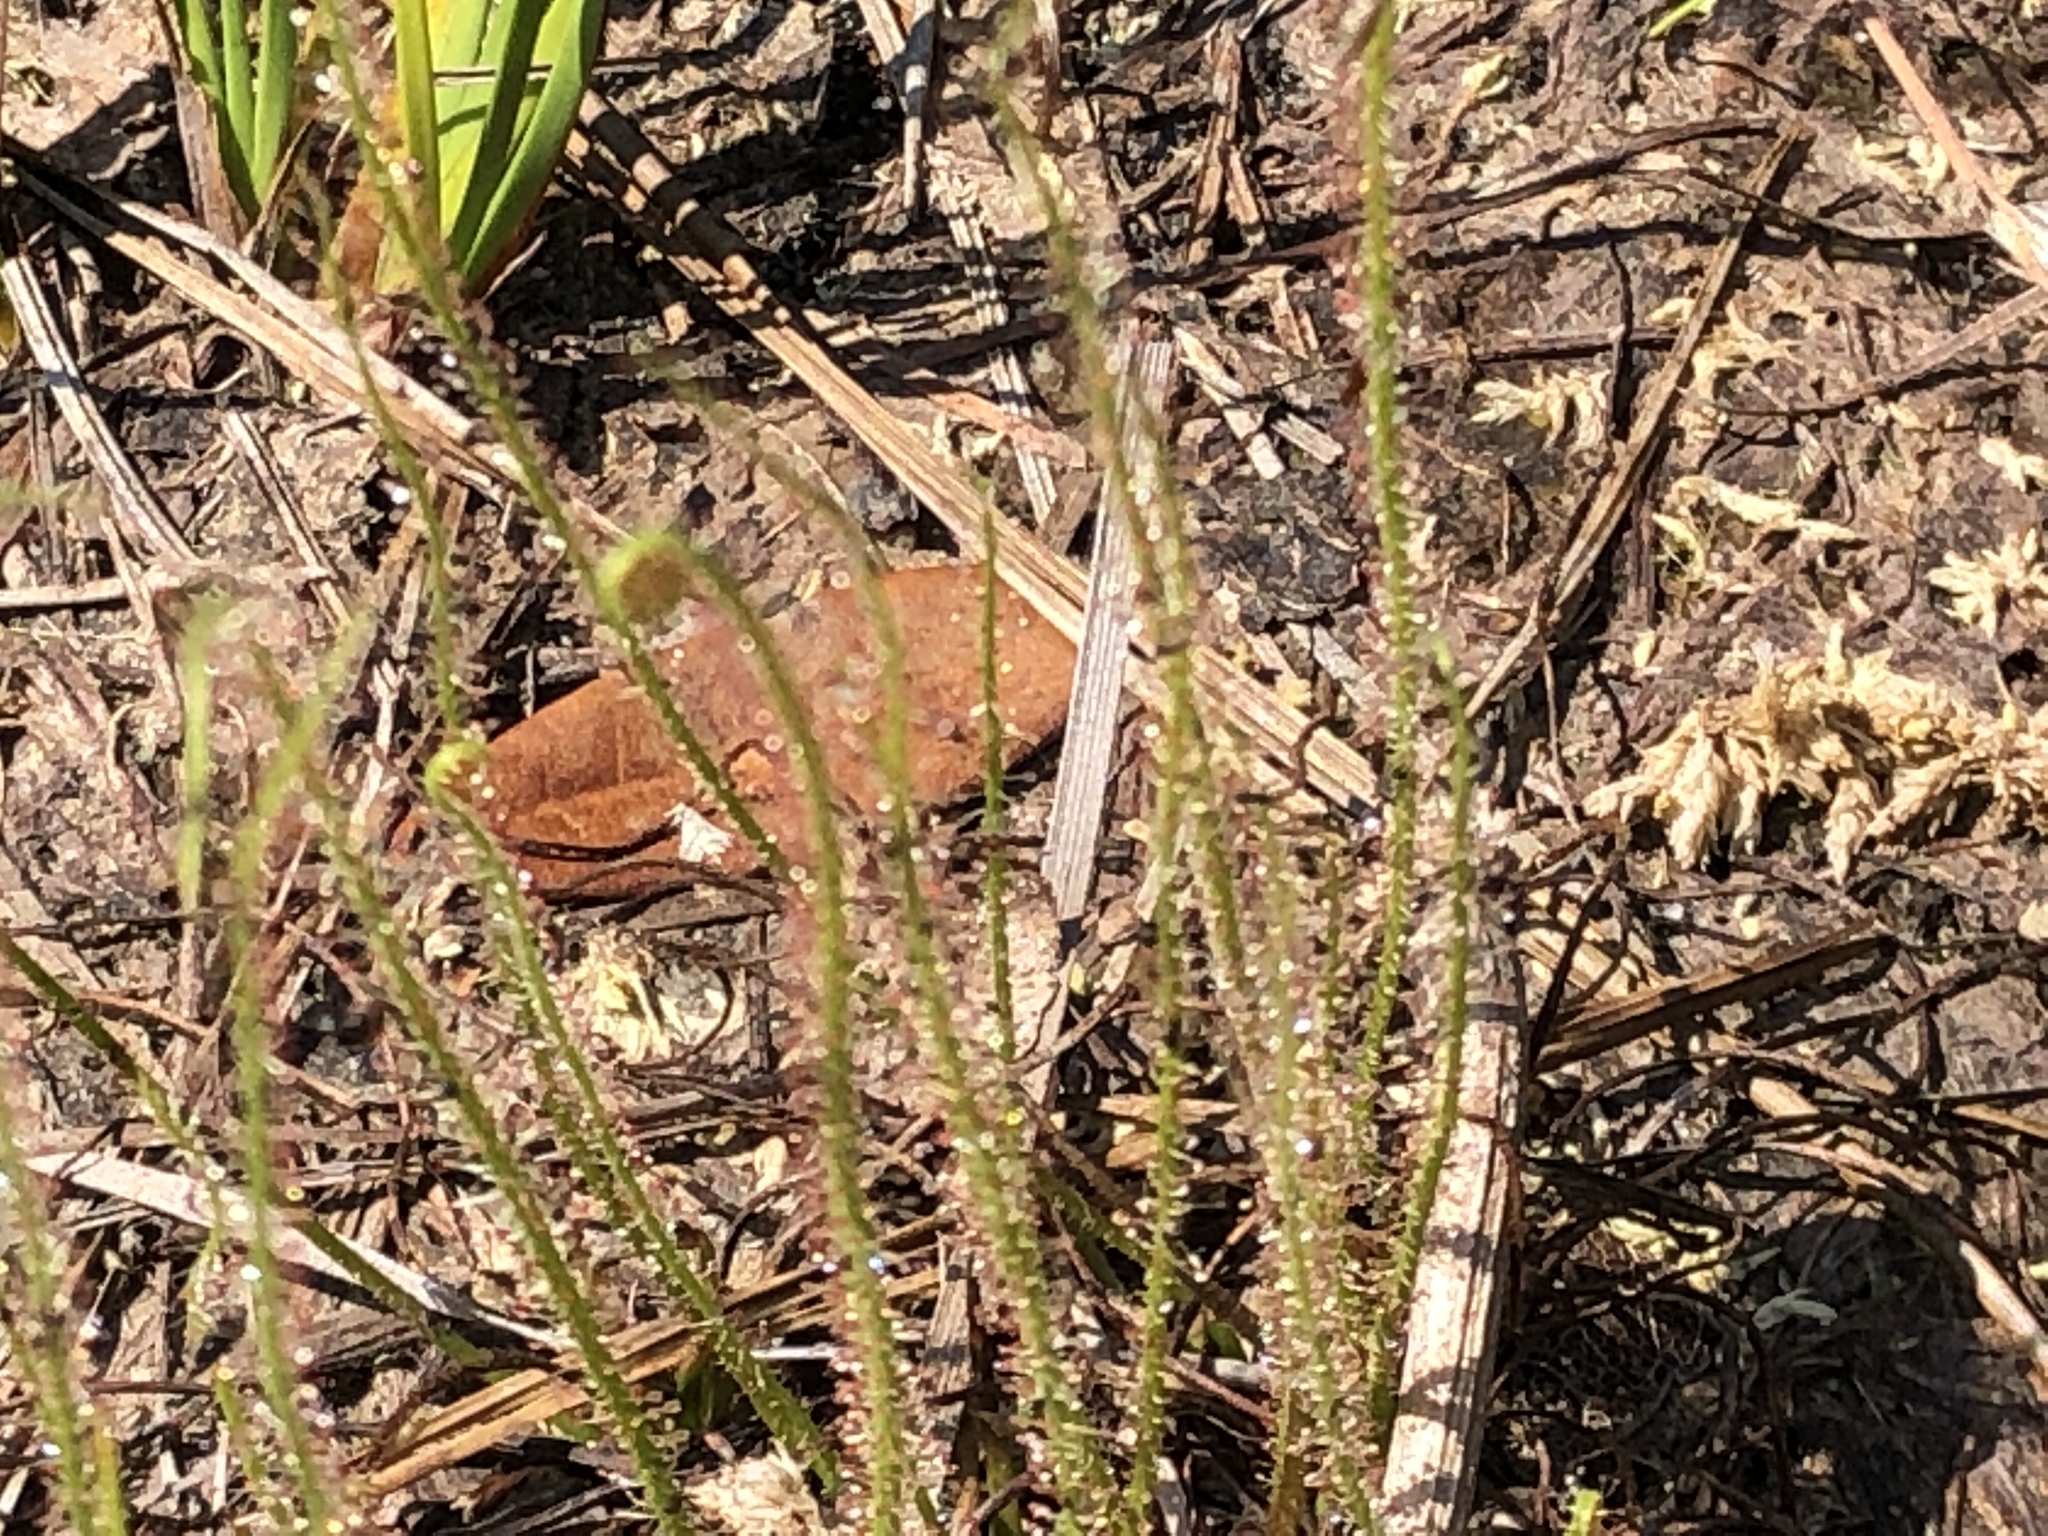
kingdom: Plantae
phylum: Tracheophyta
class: Magnoliopsida
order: Caryophyllales
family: Droseraceae
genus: Drosera
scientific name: Drosera filiformis
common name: Dew-thread
